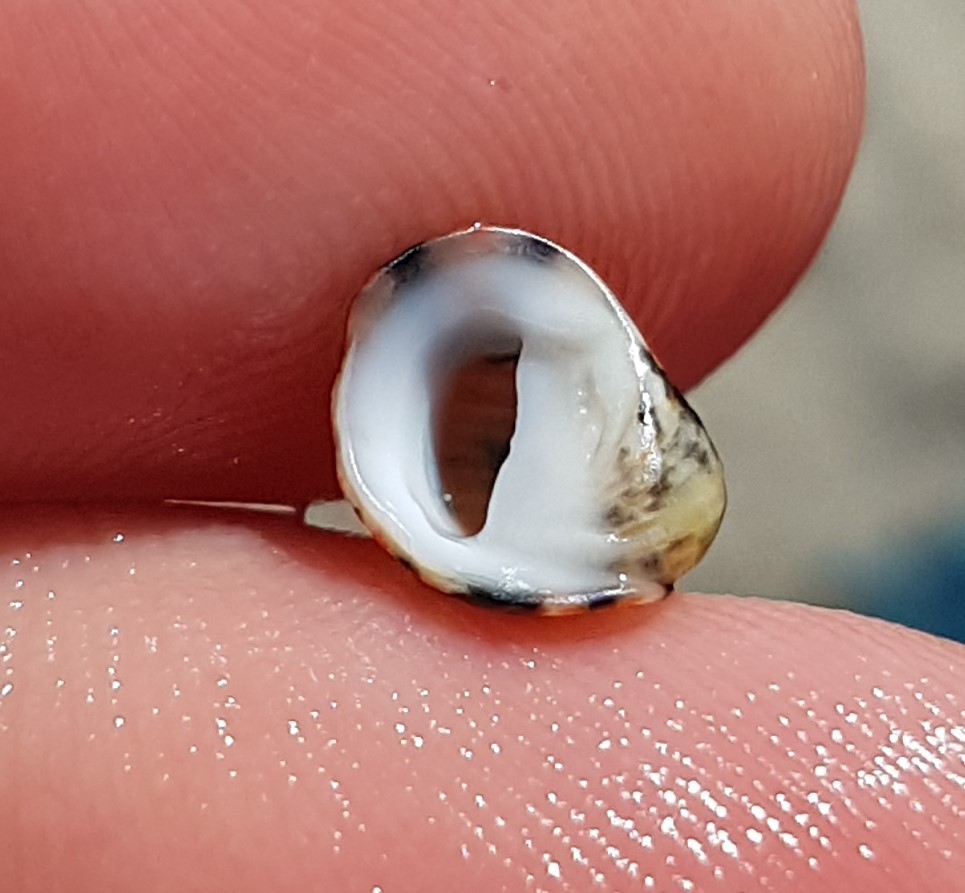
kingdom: Animalia
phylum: Mollusca
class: Gastropoda
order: Cycloneritida
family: Neritidae
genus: Nerita
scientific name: Nerita funiculata
